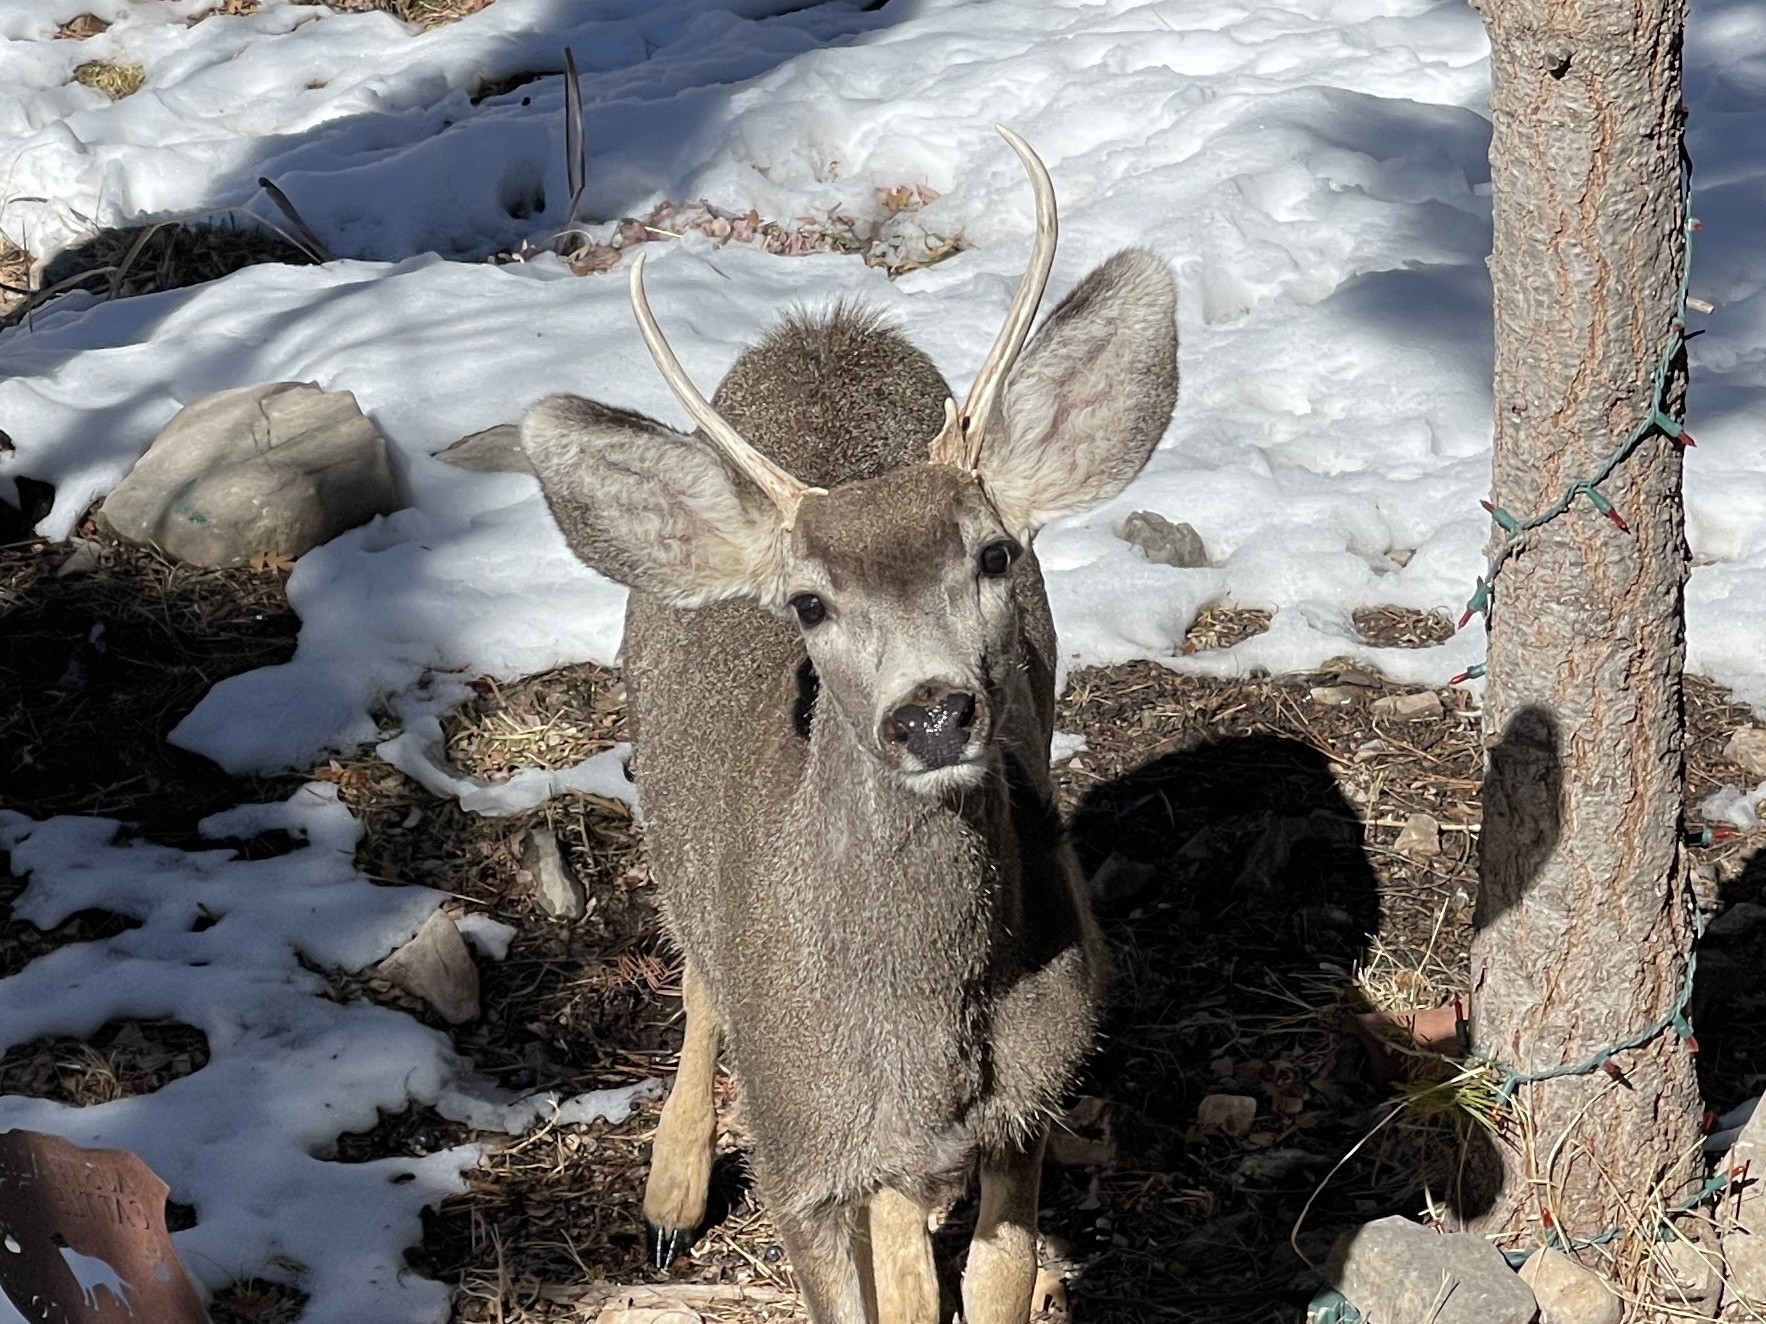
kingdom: Animalia
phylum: Chordata
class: Mammalia
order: Artiodactyla
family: Cervidae
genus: Odocoileus
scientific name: Odocoileus hemionus
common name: Mule deer
